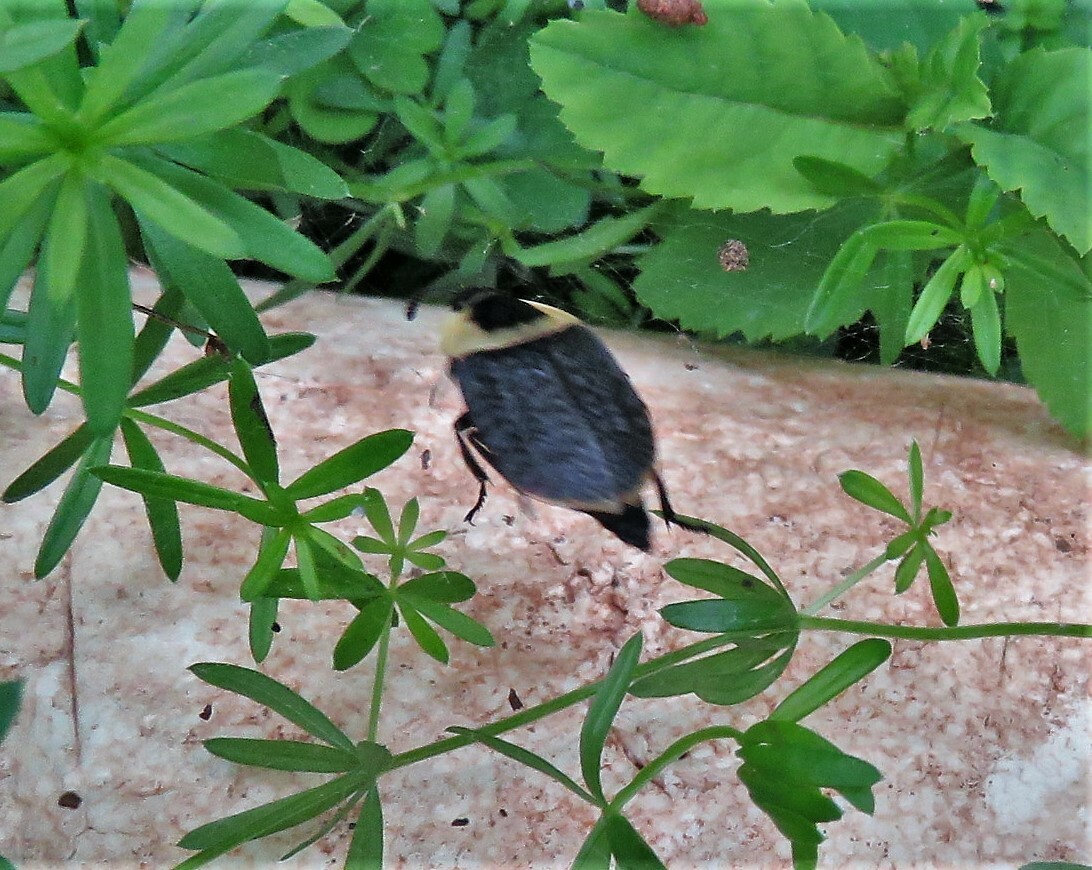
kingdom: Animalia
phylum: Arthropoda
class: Insecta
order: Coleoptera
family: Staphylinidae
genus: Necrophila
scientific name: Necrophila americana
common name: American carrion beetle
